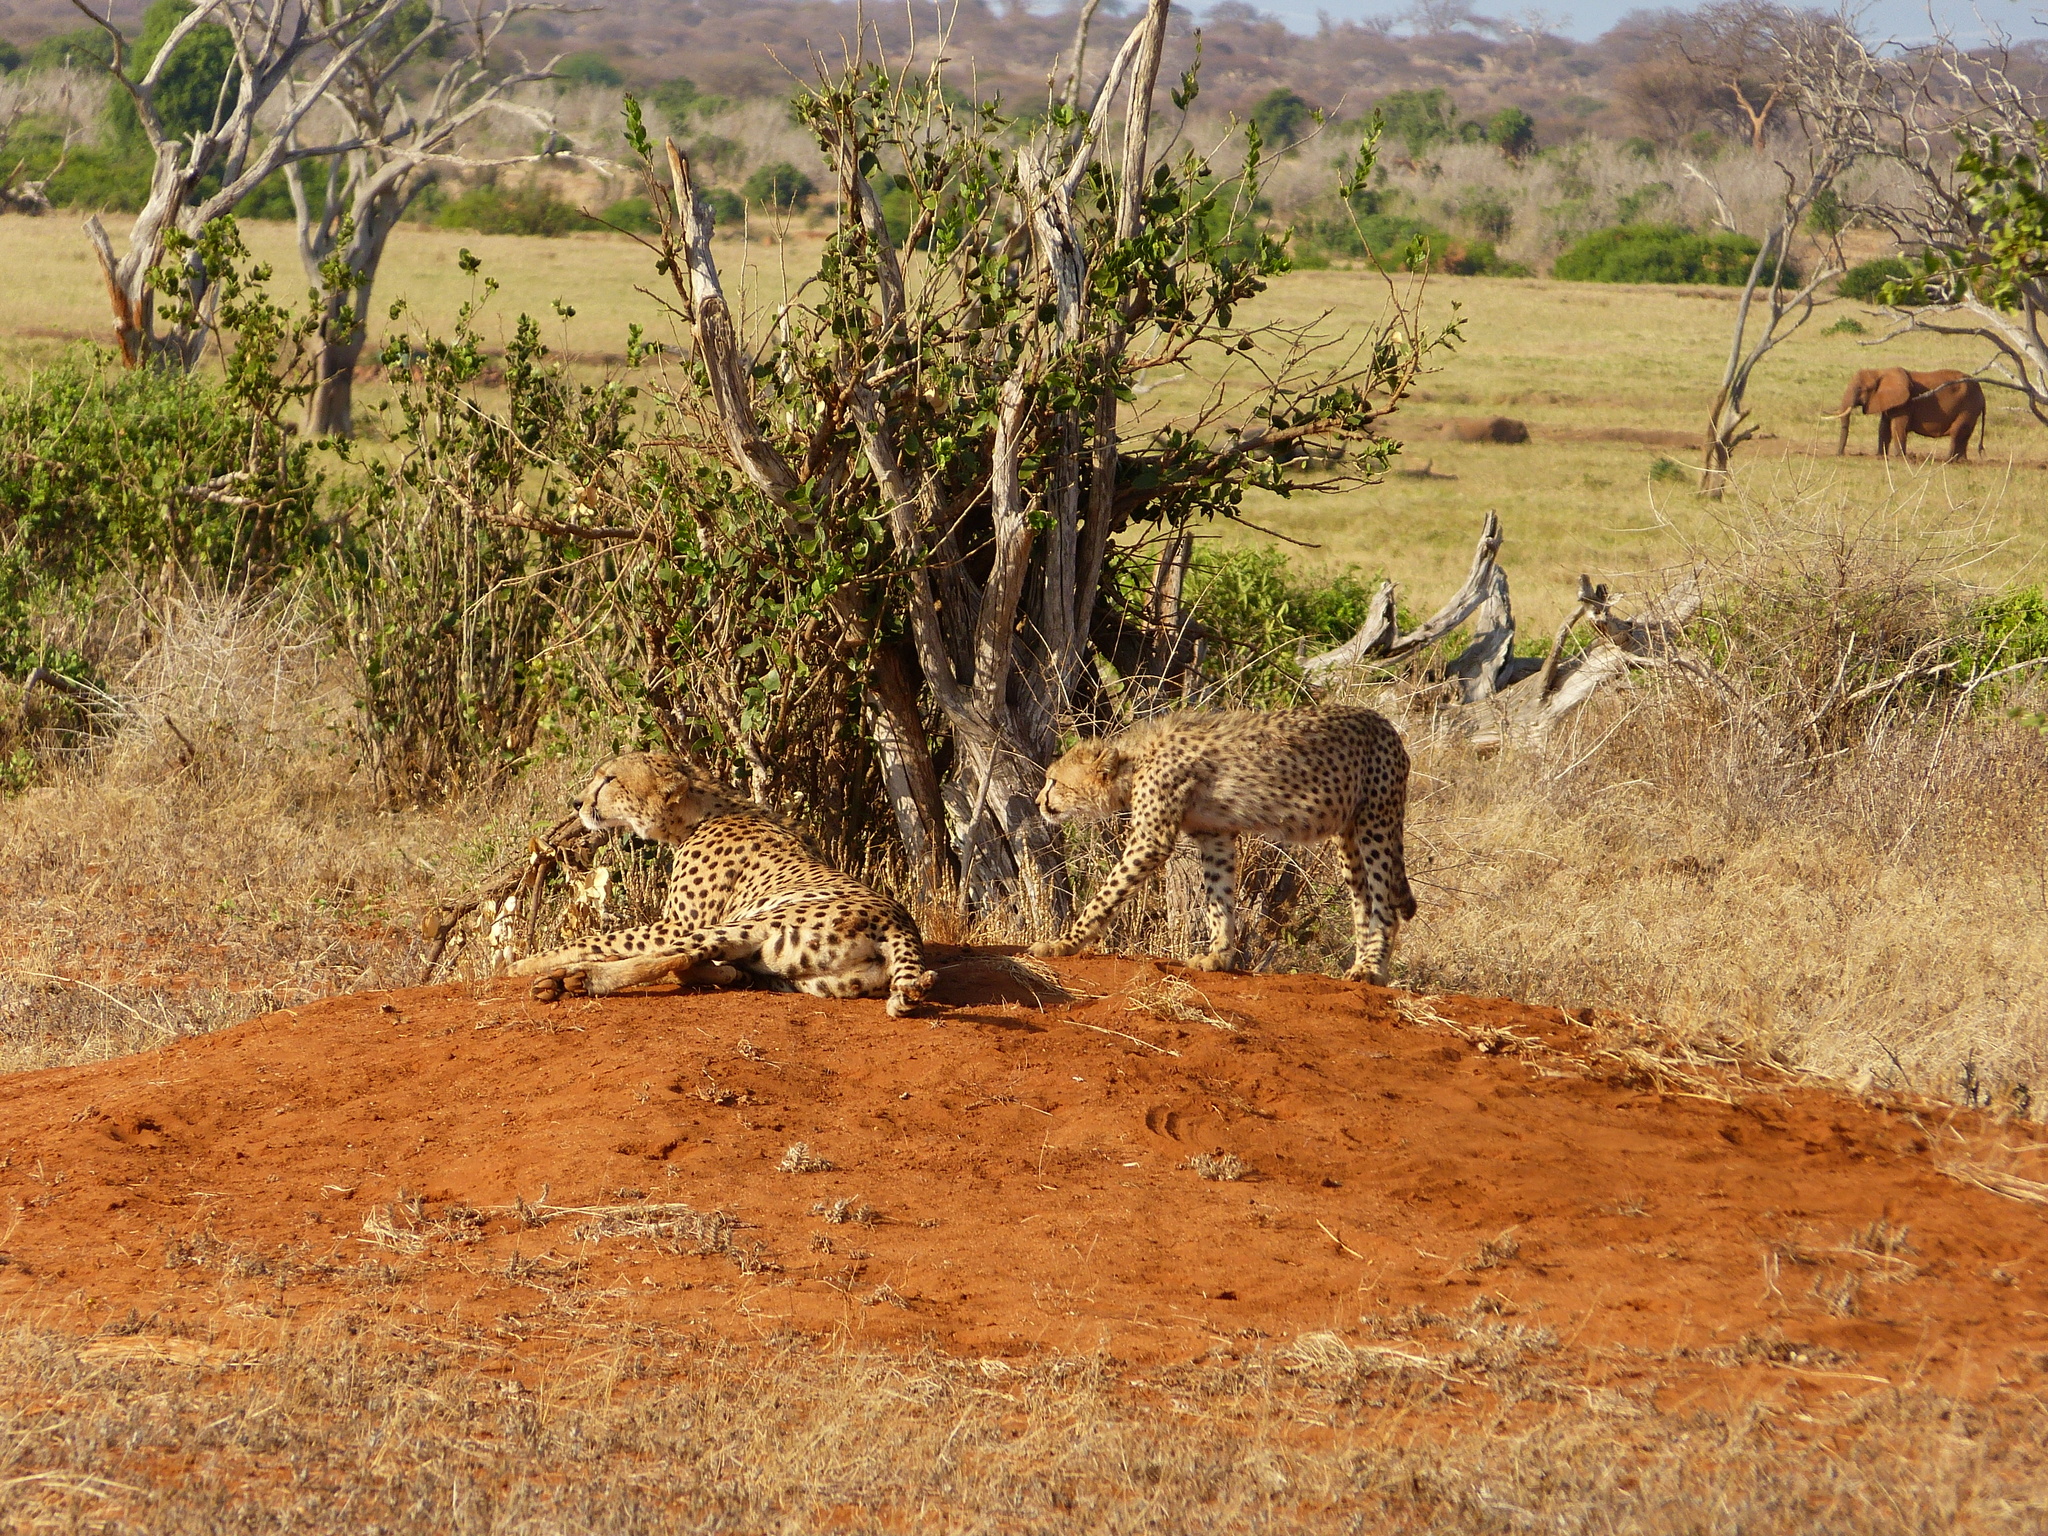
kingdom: Animalia
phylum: Chordata
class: Mammalia
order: Carnivora
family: Felidae
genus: Acinonyx
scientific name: Acinonyx jubatus
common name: Cheetah
